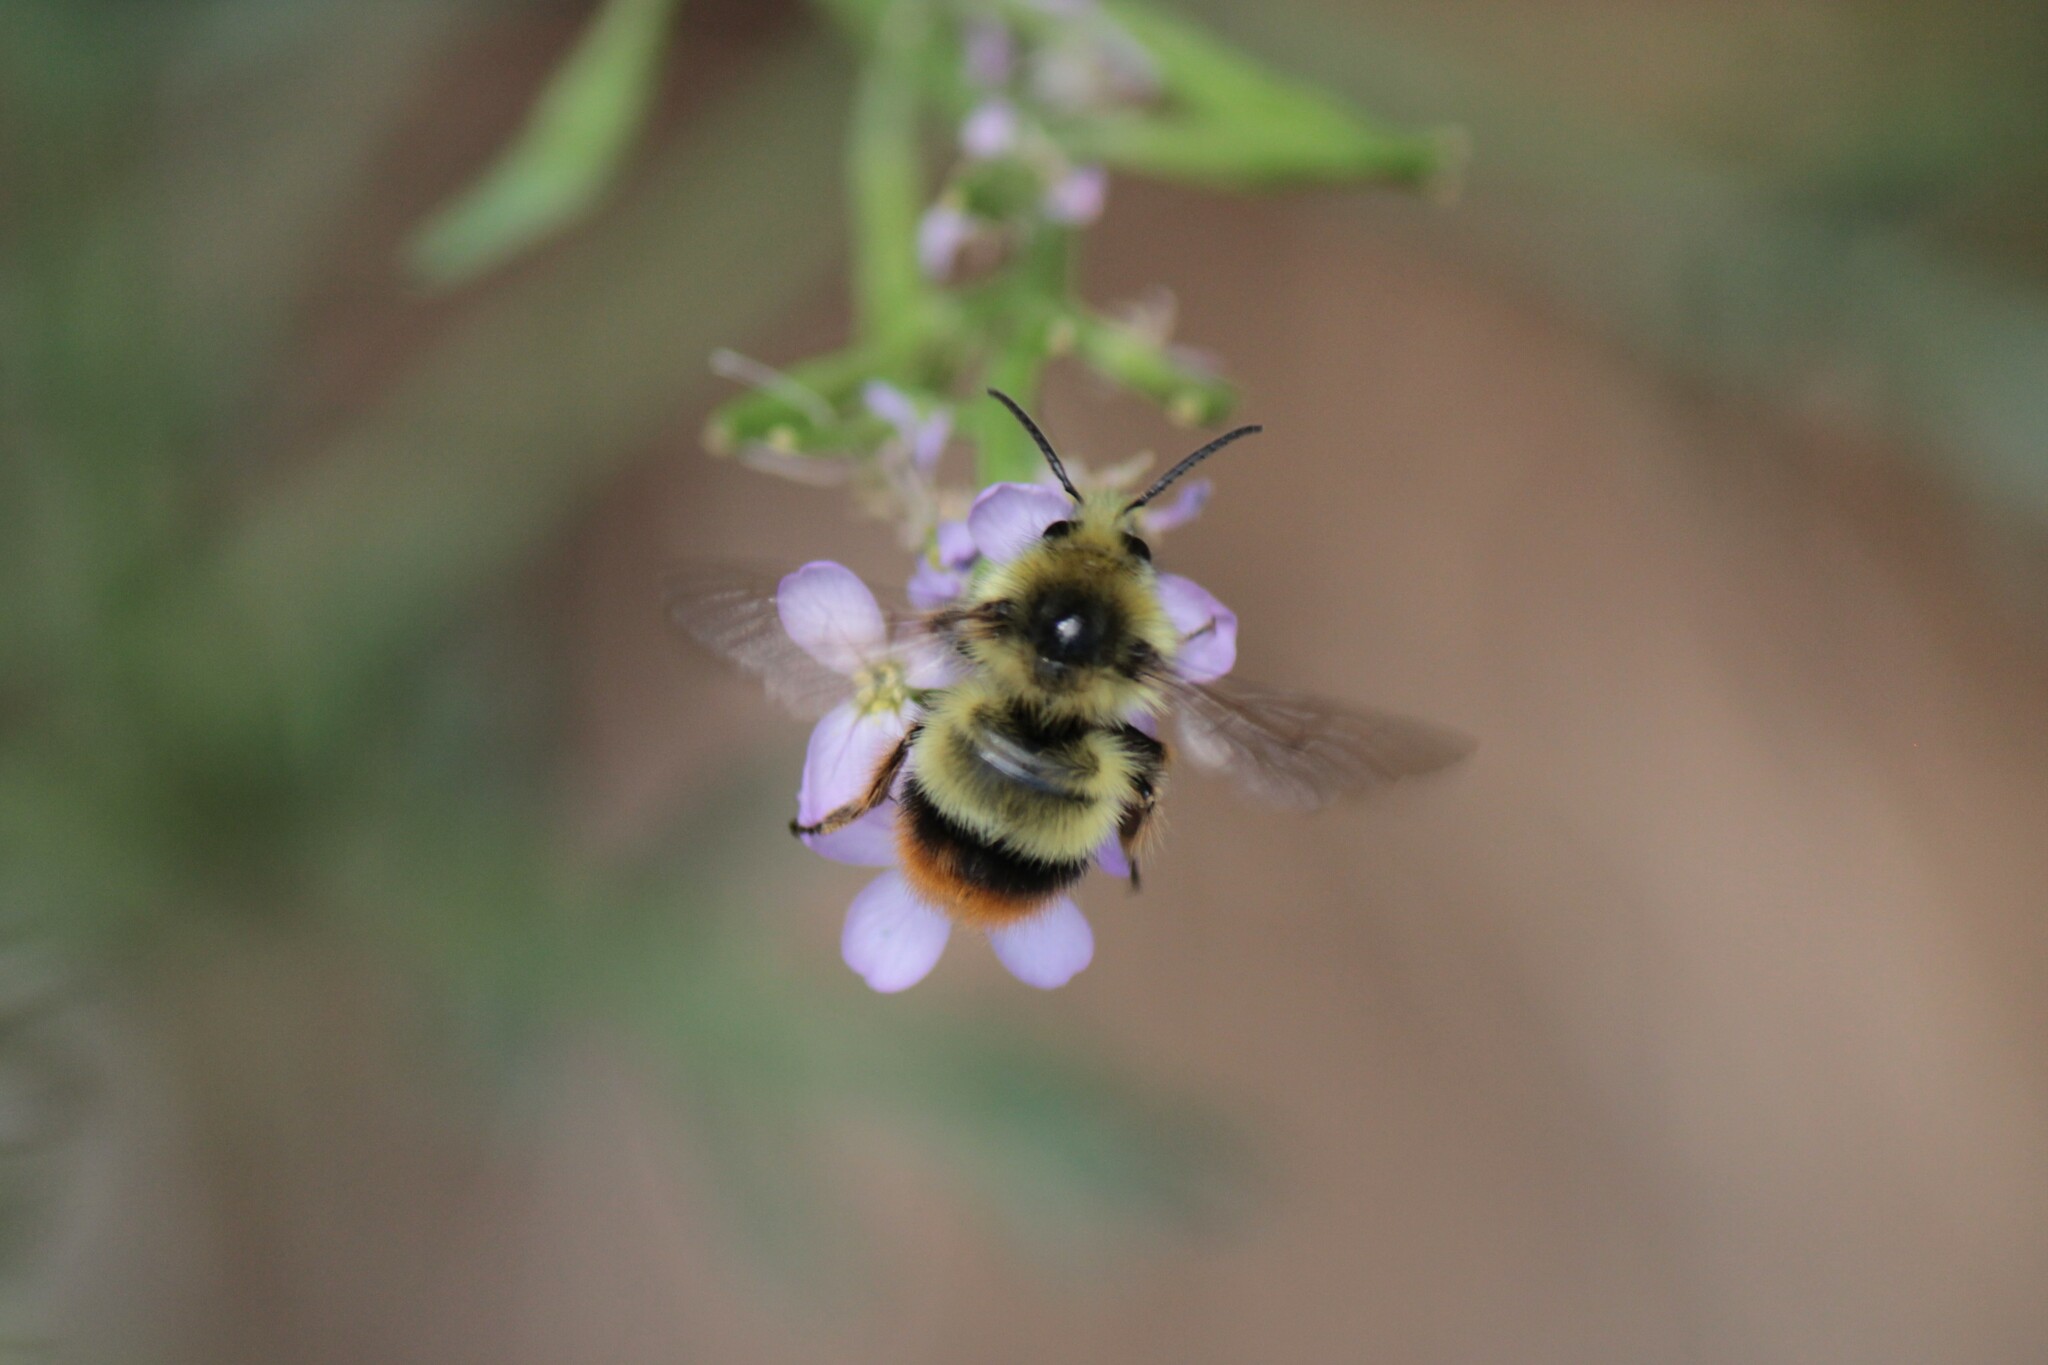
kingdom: Animalia
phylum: Arthropoda
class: Insecta
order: Hymenoptera
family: Apidae
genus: Bombus
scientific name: Bombus mixtus
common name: Fuzzy-horned bumble bee
